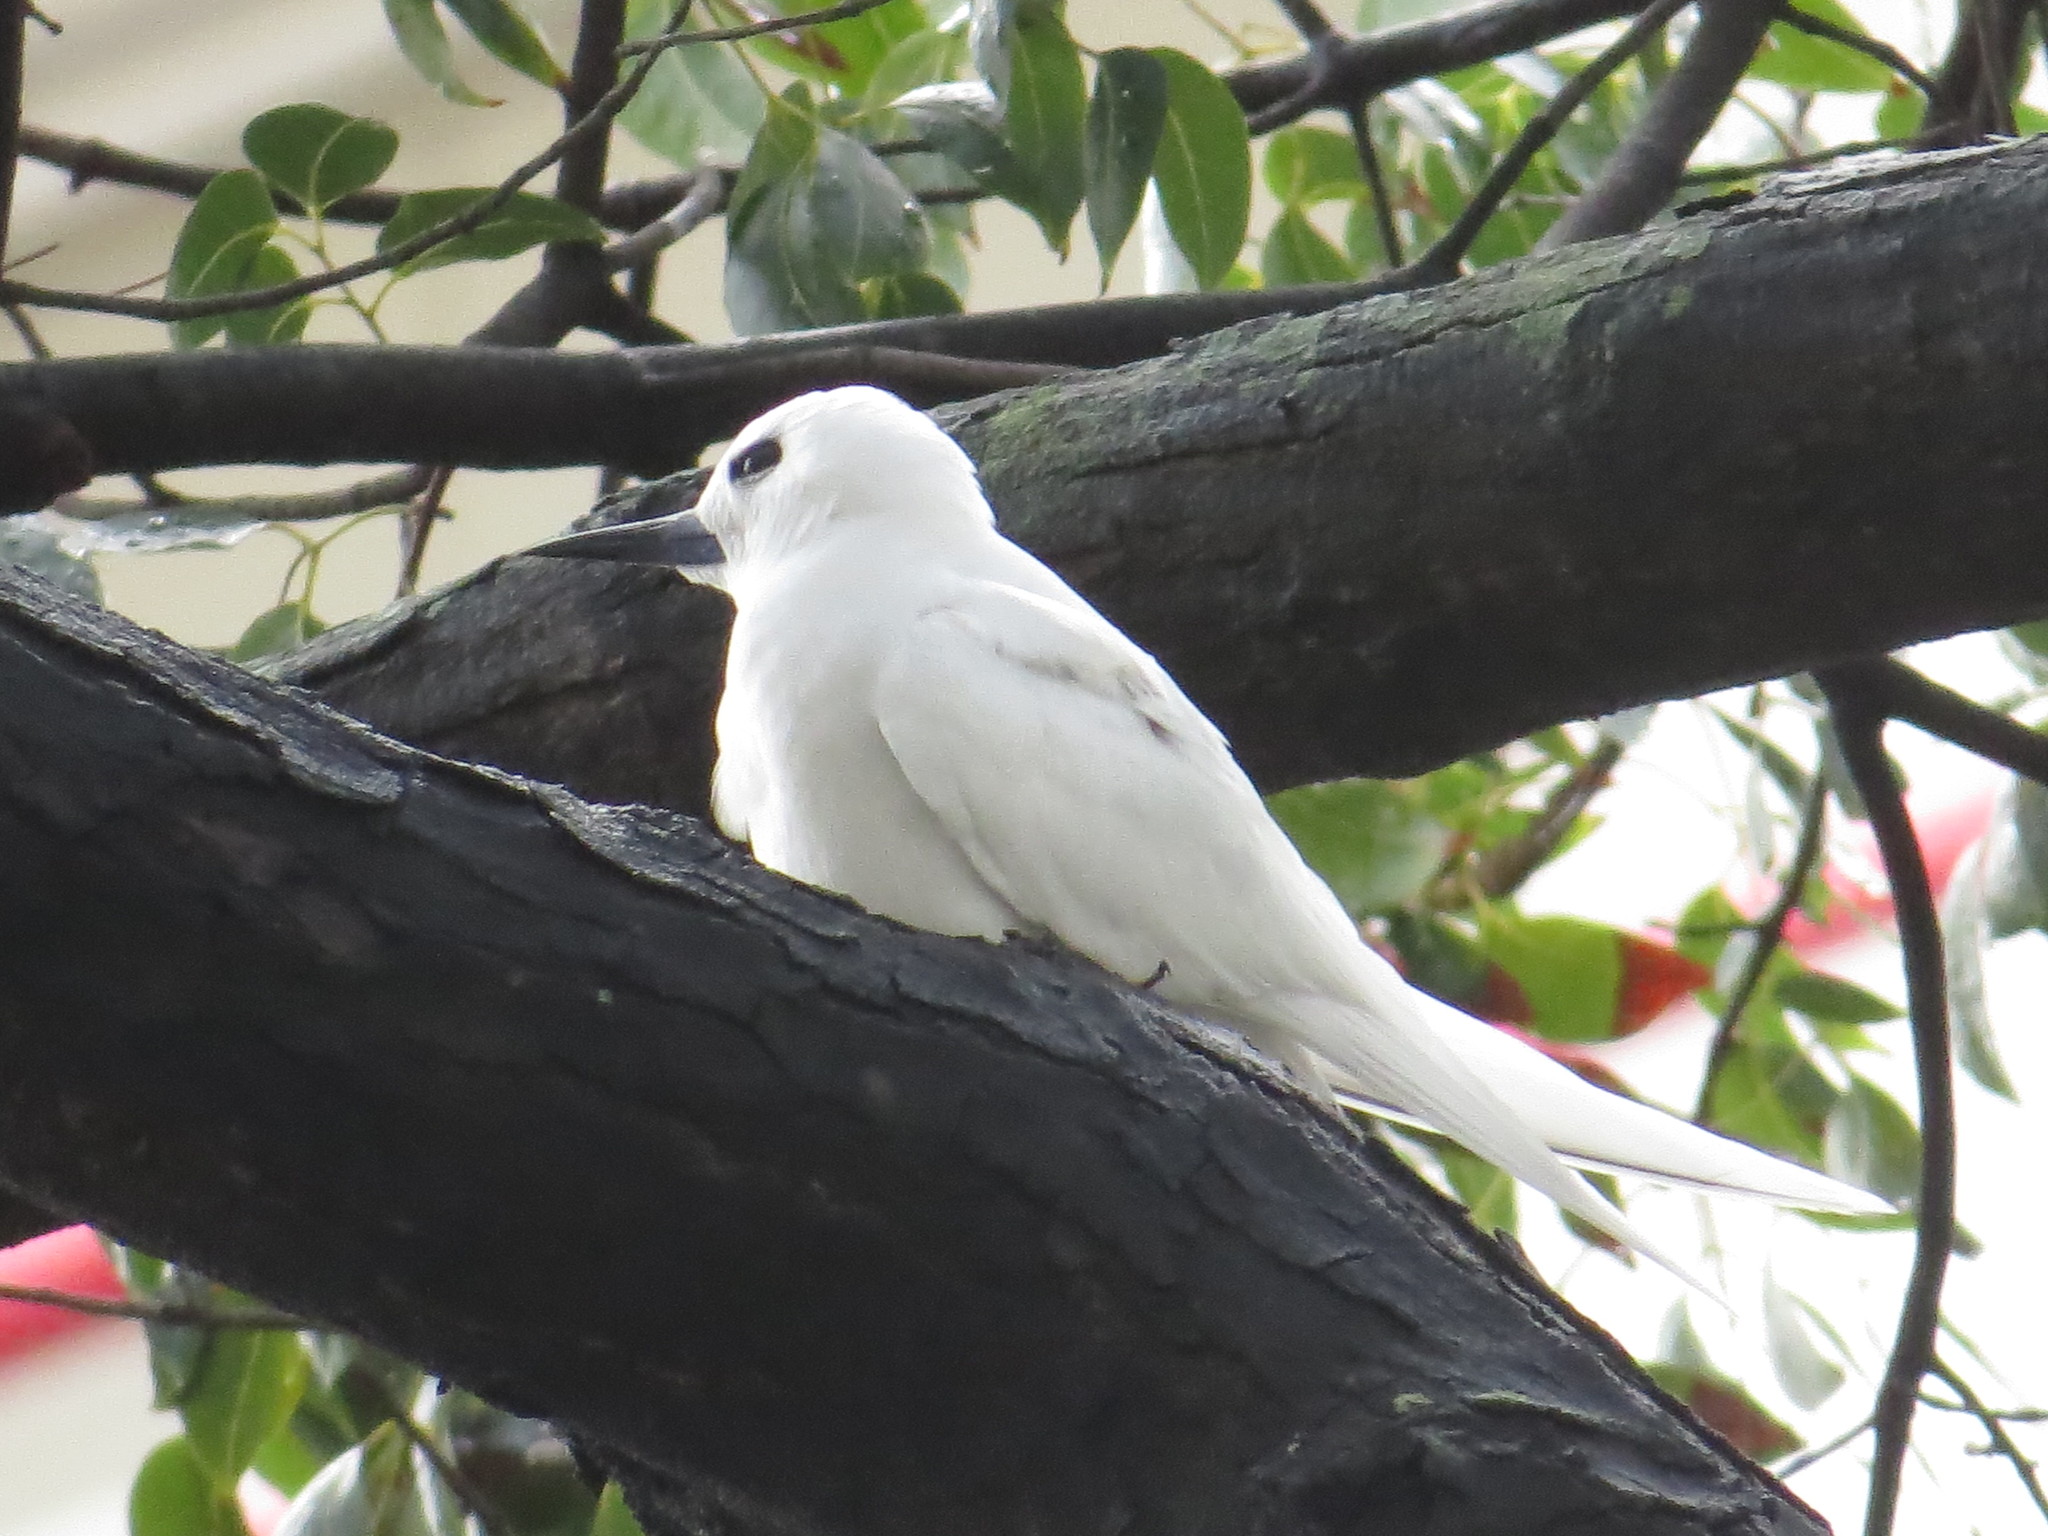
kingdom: Animalia
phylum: Chordata
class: Aves
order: Charadriiformes
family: Laridae
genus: Gygis
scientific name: Gygis alba
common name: White tern
